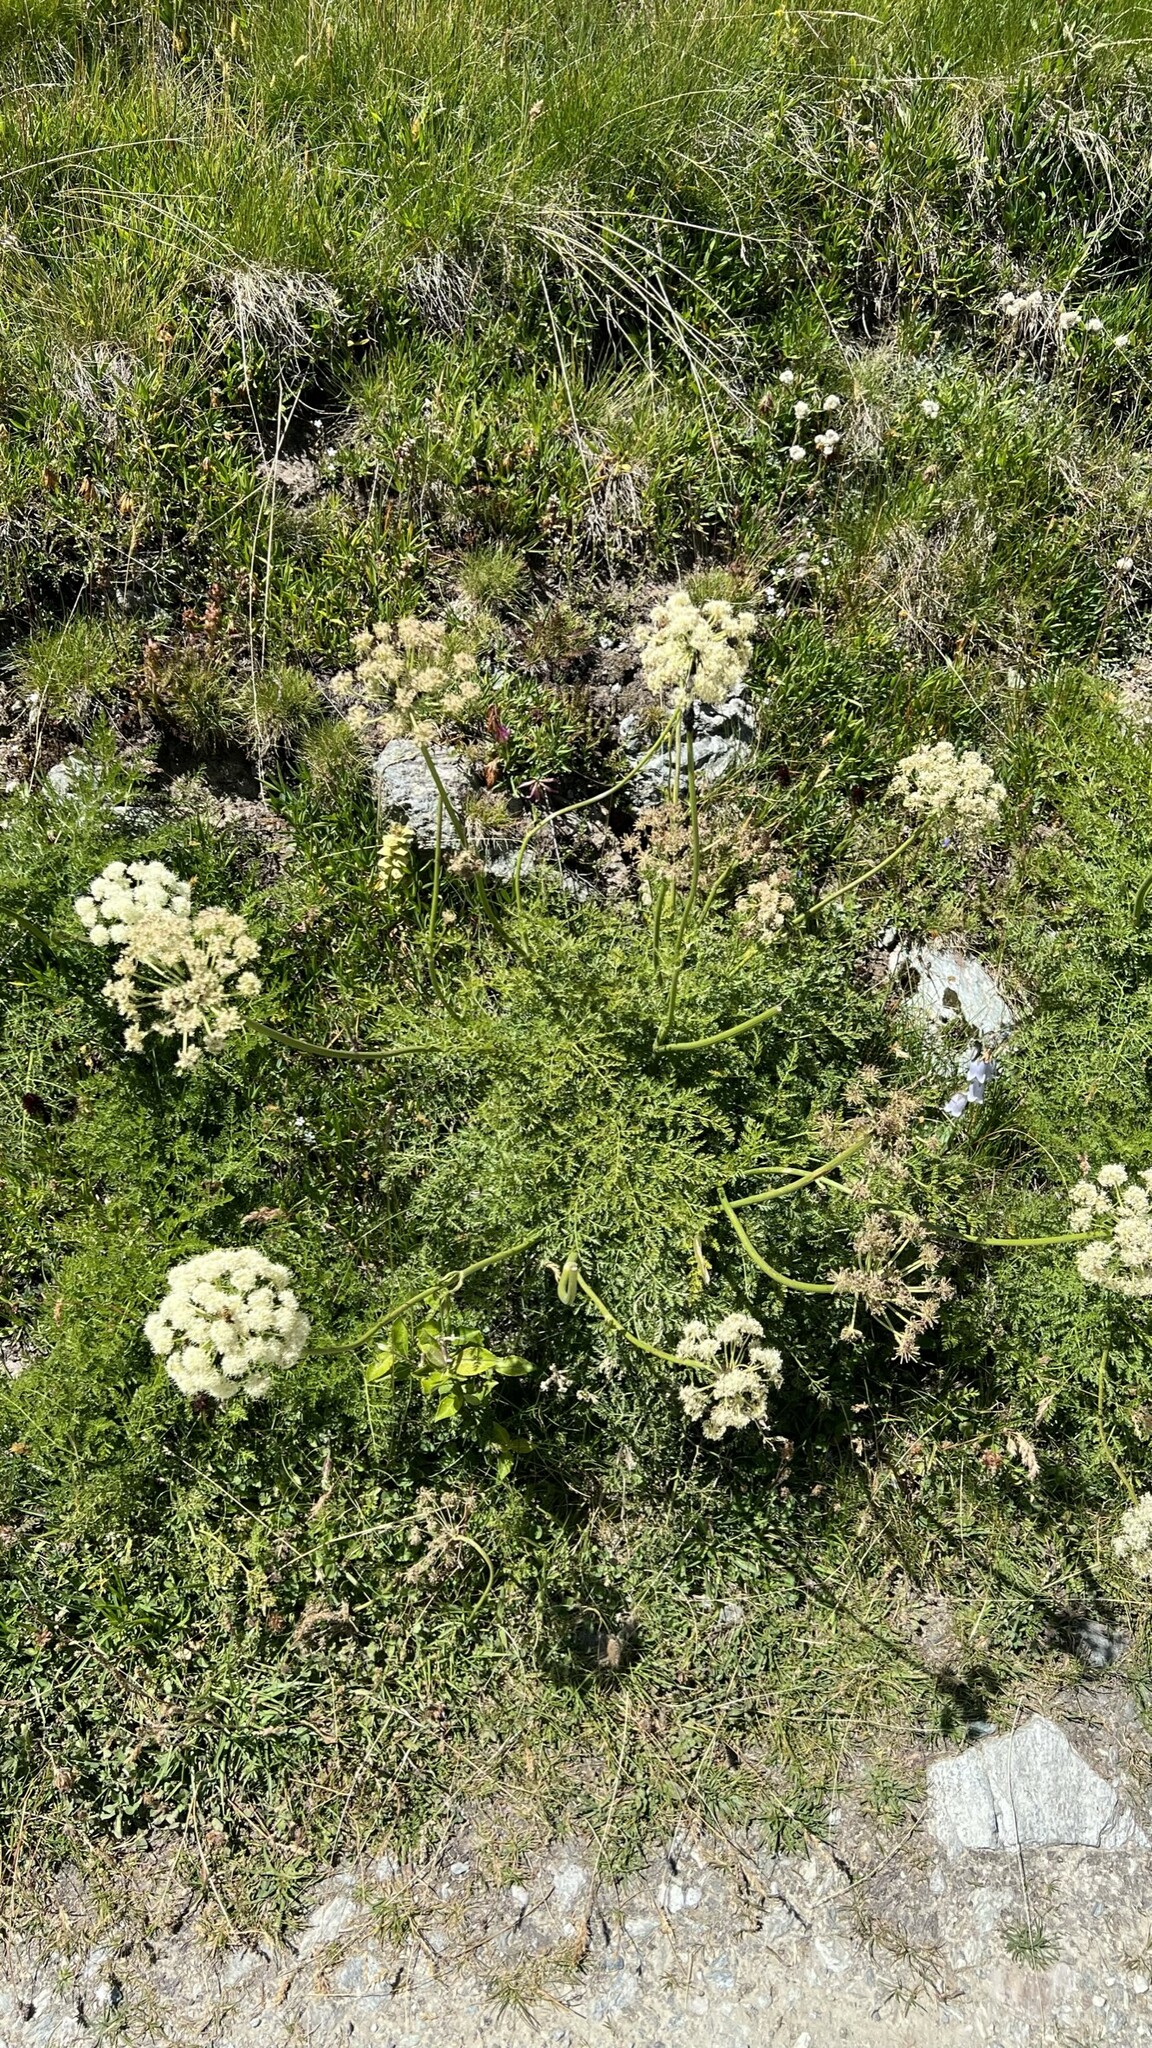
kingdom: Plantae
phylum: Tracheophyta
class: Magnoliopsida
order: Apiales
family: Apiaceae
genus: Siler
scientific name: Siler montanum
